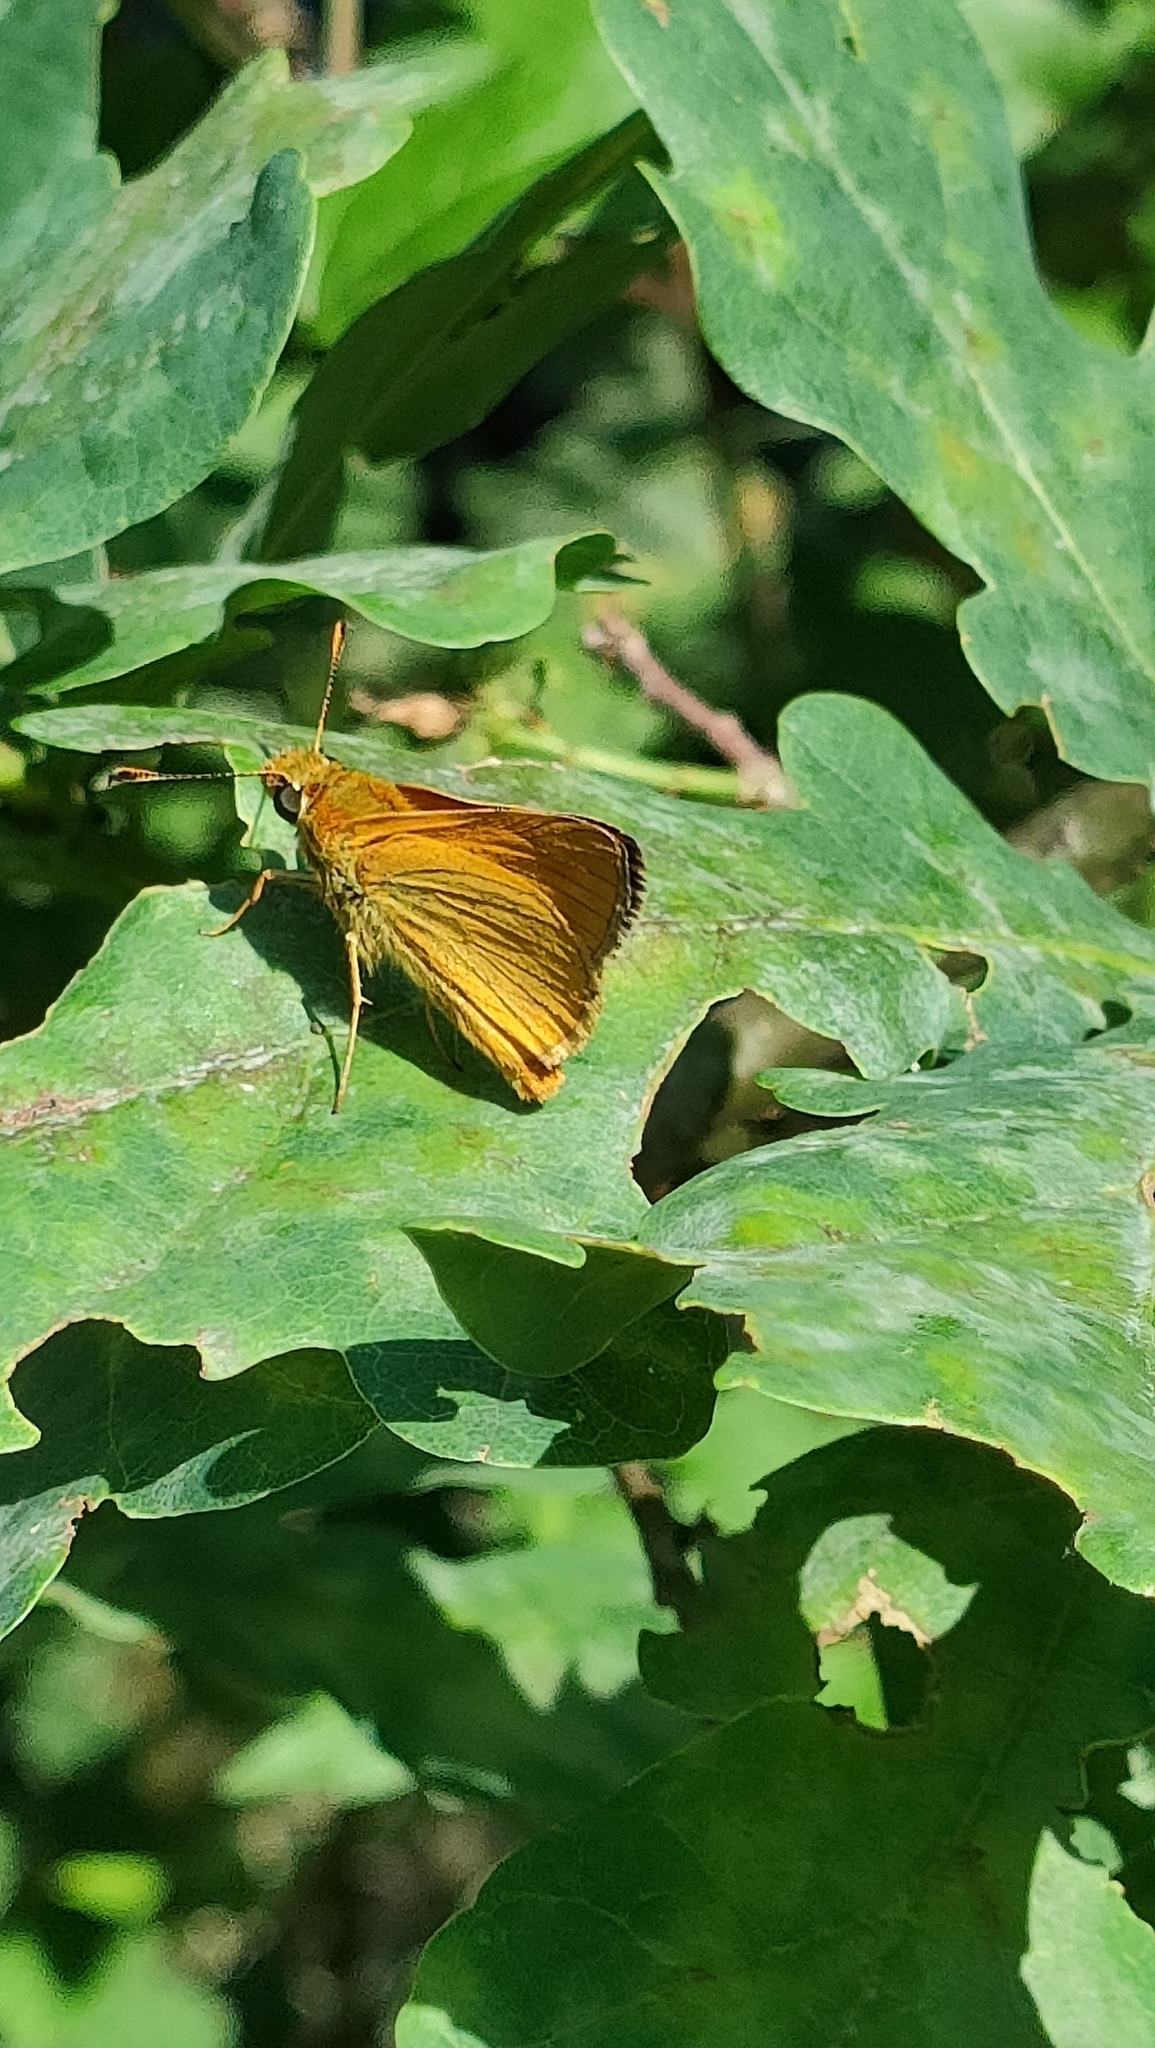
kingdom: Animalia
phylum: Arthropoda
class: Insecta
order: Lepidoptera
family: Hesperiidae
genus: Ochlodes
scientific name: Ochlodes venata
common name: Large skipper
